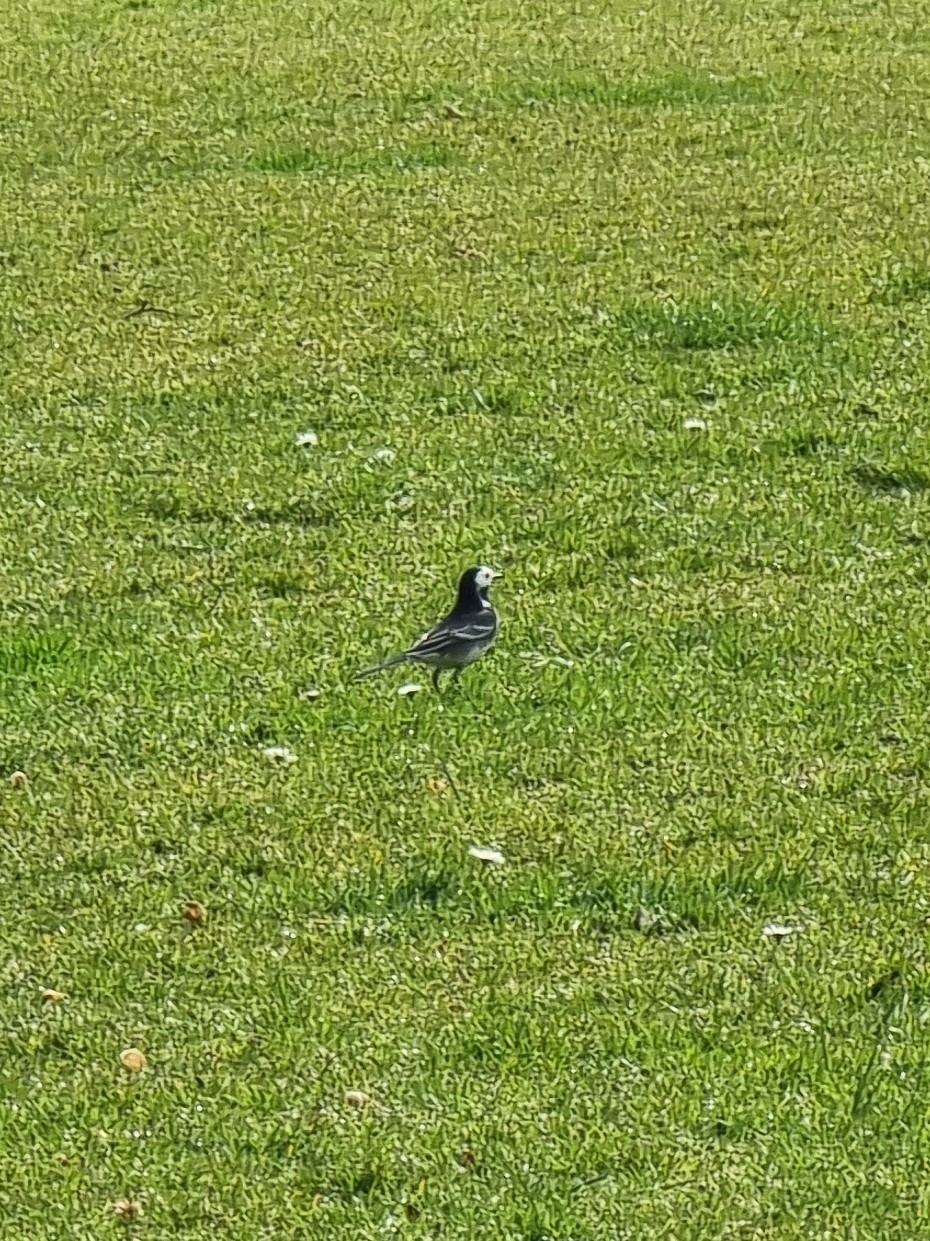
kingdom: Animalia
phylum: Chordata
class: Aves
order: Passeriformes
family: Motacillidae
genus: Motacilla
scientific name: Motacilla alba
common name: White wagtail
